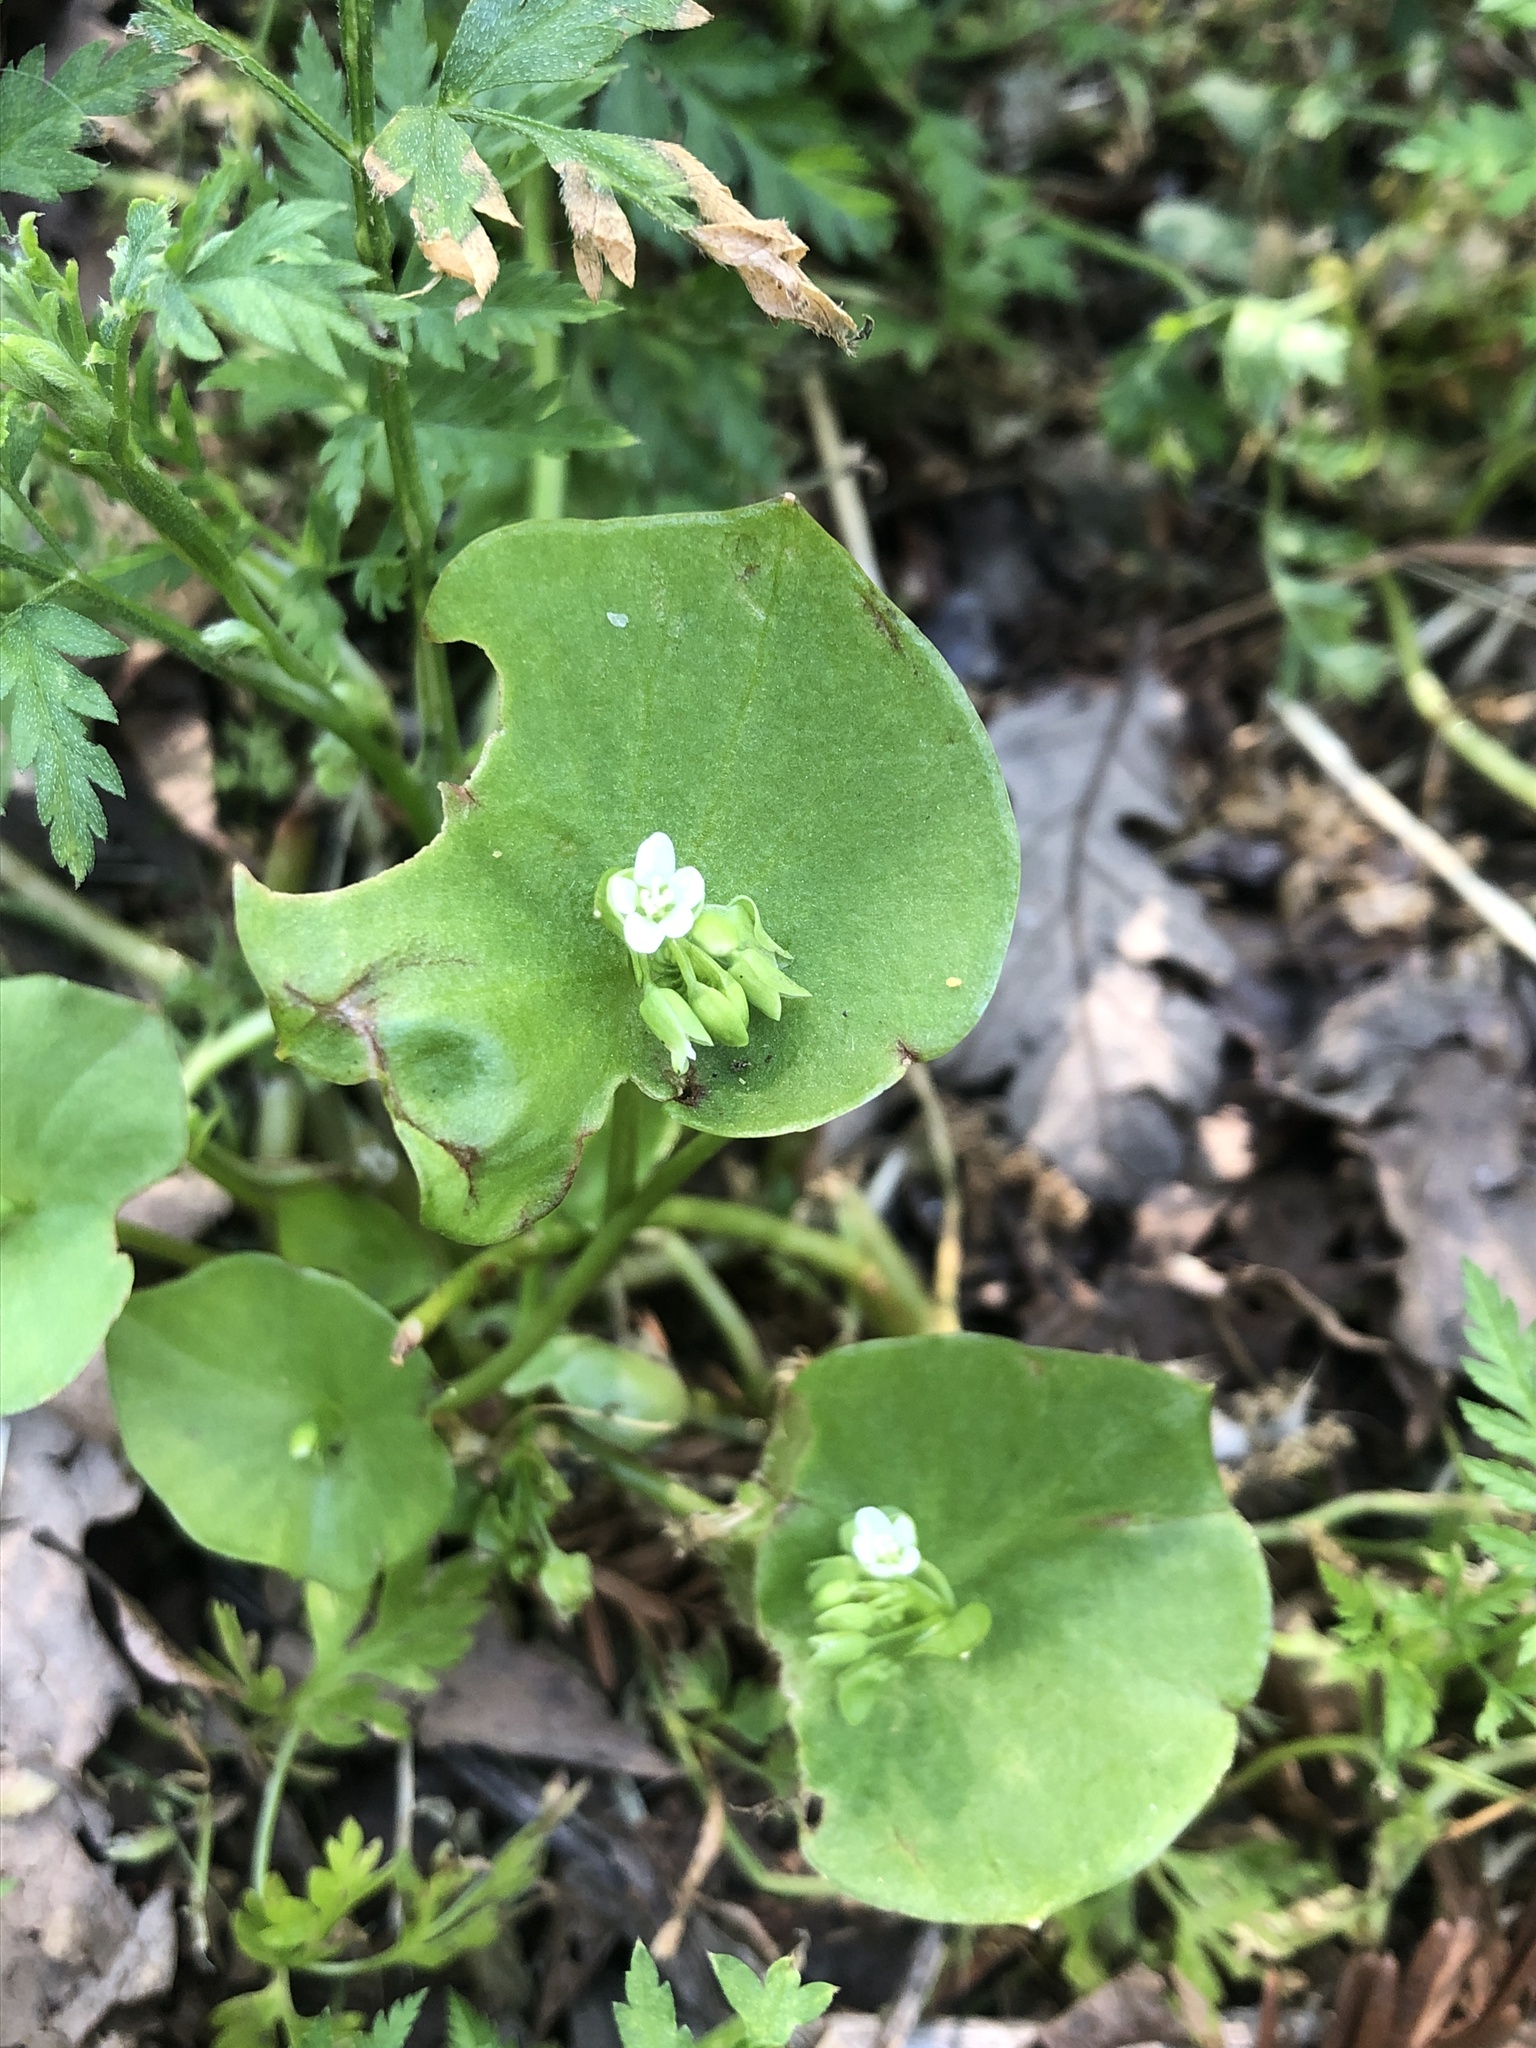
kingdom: Plantae
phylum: Tracheophyta
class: Magnoliopsida
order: Caryophyllales
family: Montiaceae
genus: Claytonia
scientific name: Claytonia perfoliata
